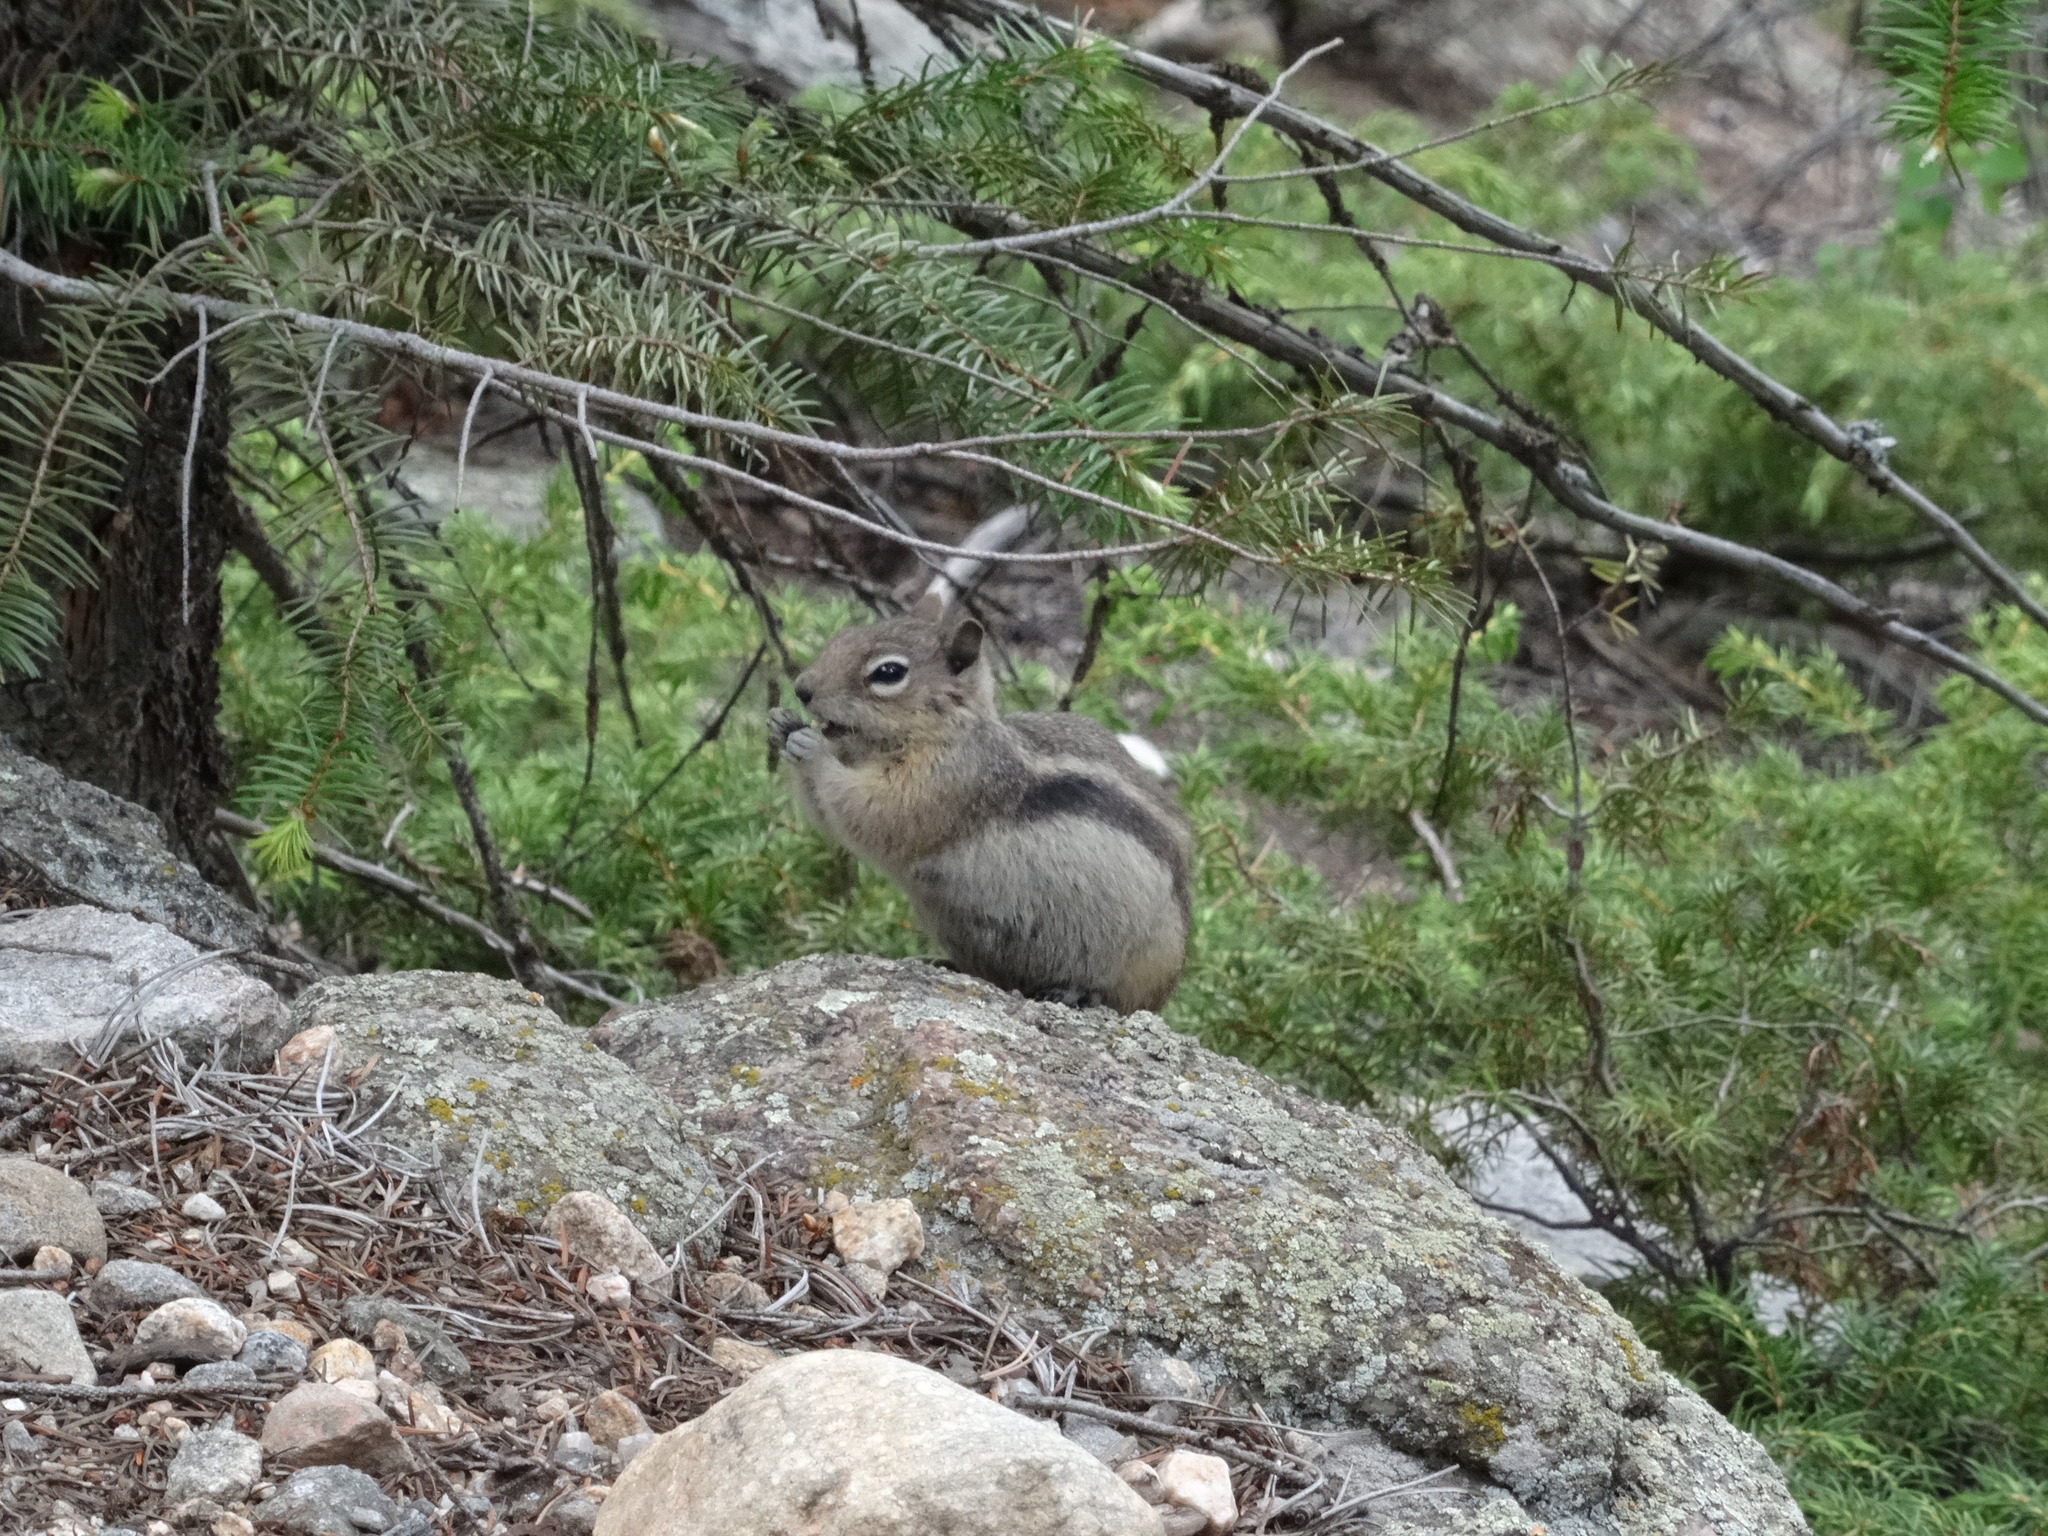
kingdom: Animalia
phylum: Chordata
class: Mammalia
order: Rodentia
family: Sciuridae
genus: Callospermophilus
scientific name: Callospermophilus lateralis
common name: Golden-mantled ground squirrel
